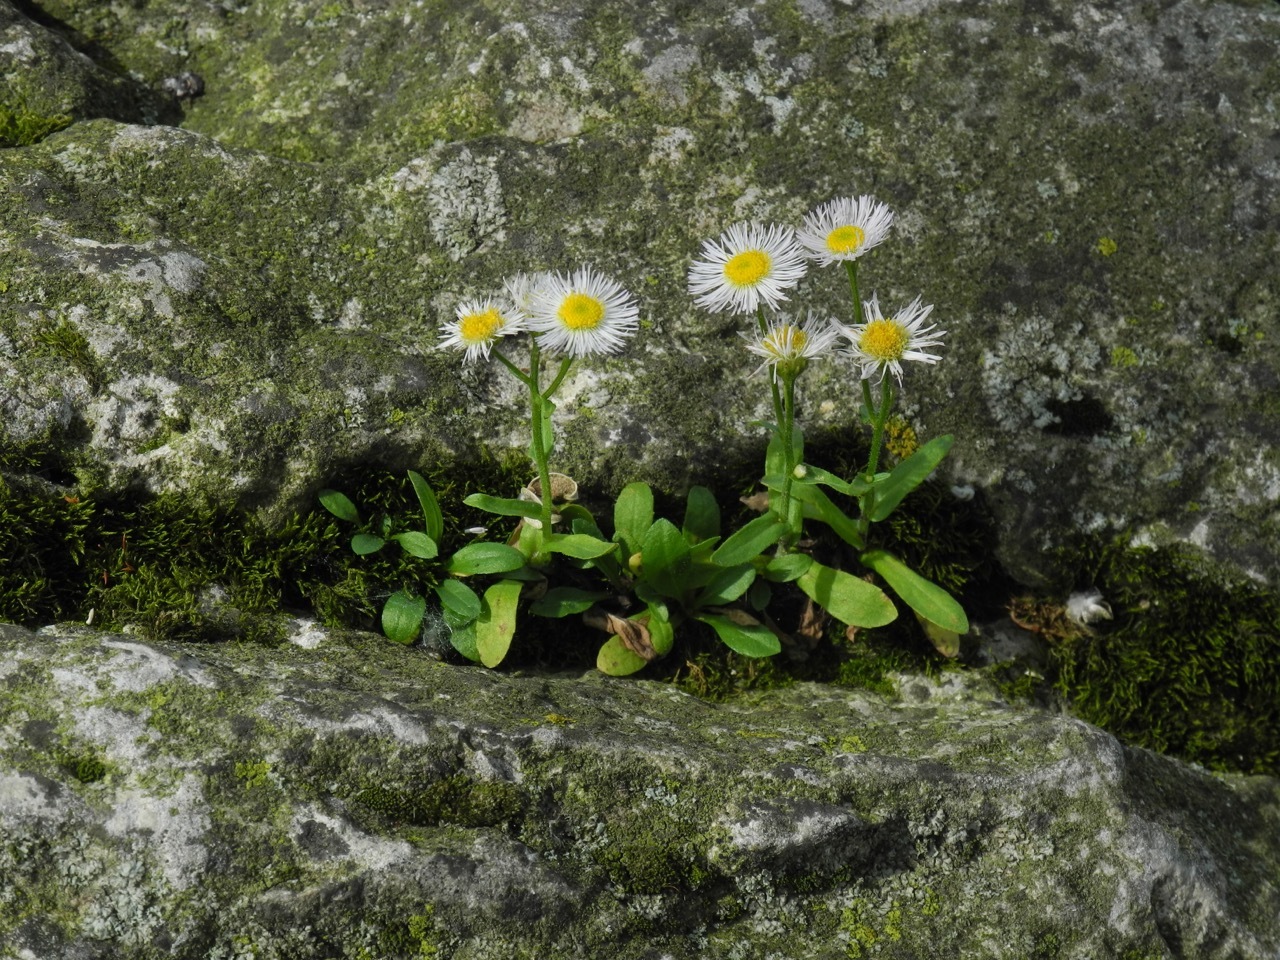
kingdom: Plantae
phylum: Tracheophyta
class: Magnoliopsida
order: Asterales
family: Asteraceae
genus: Erigeron
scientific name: Erigeron philadelphicus
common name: Robin's-plantain
